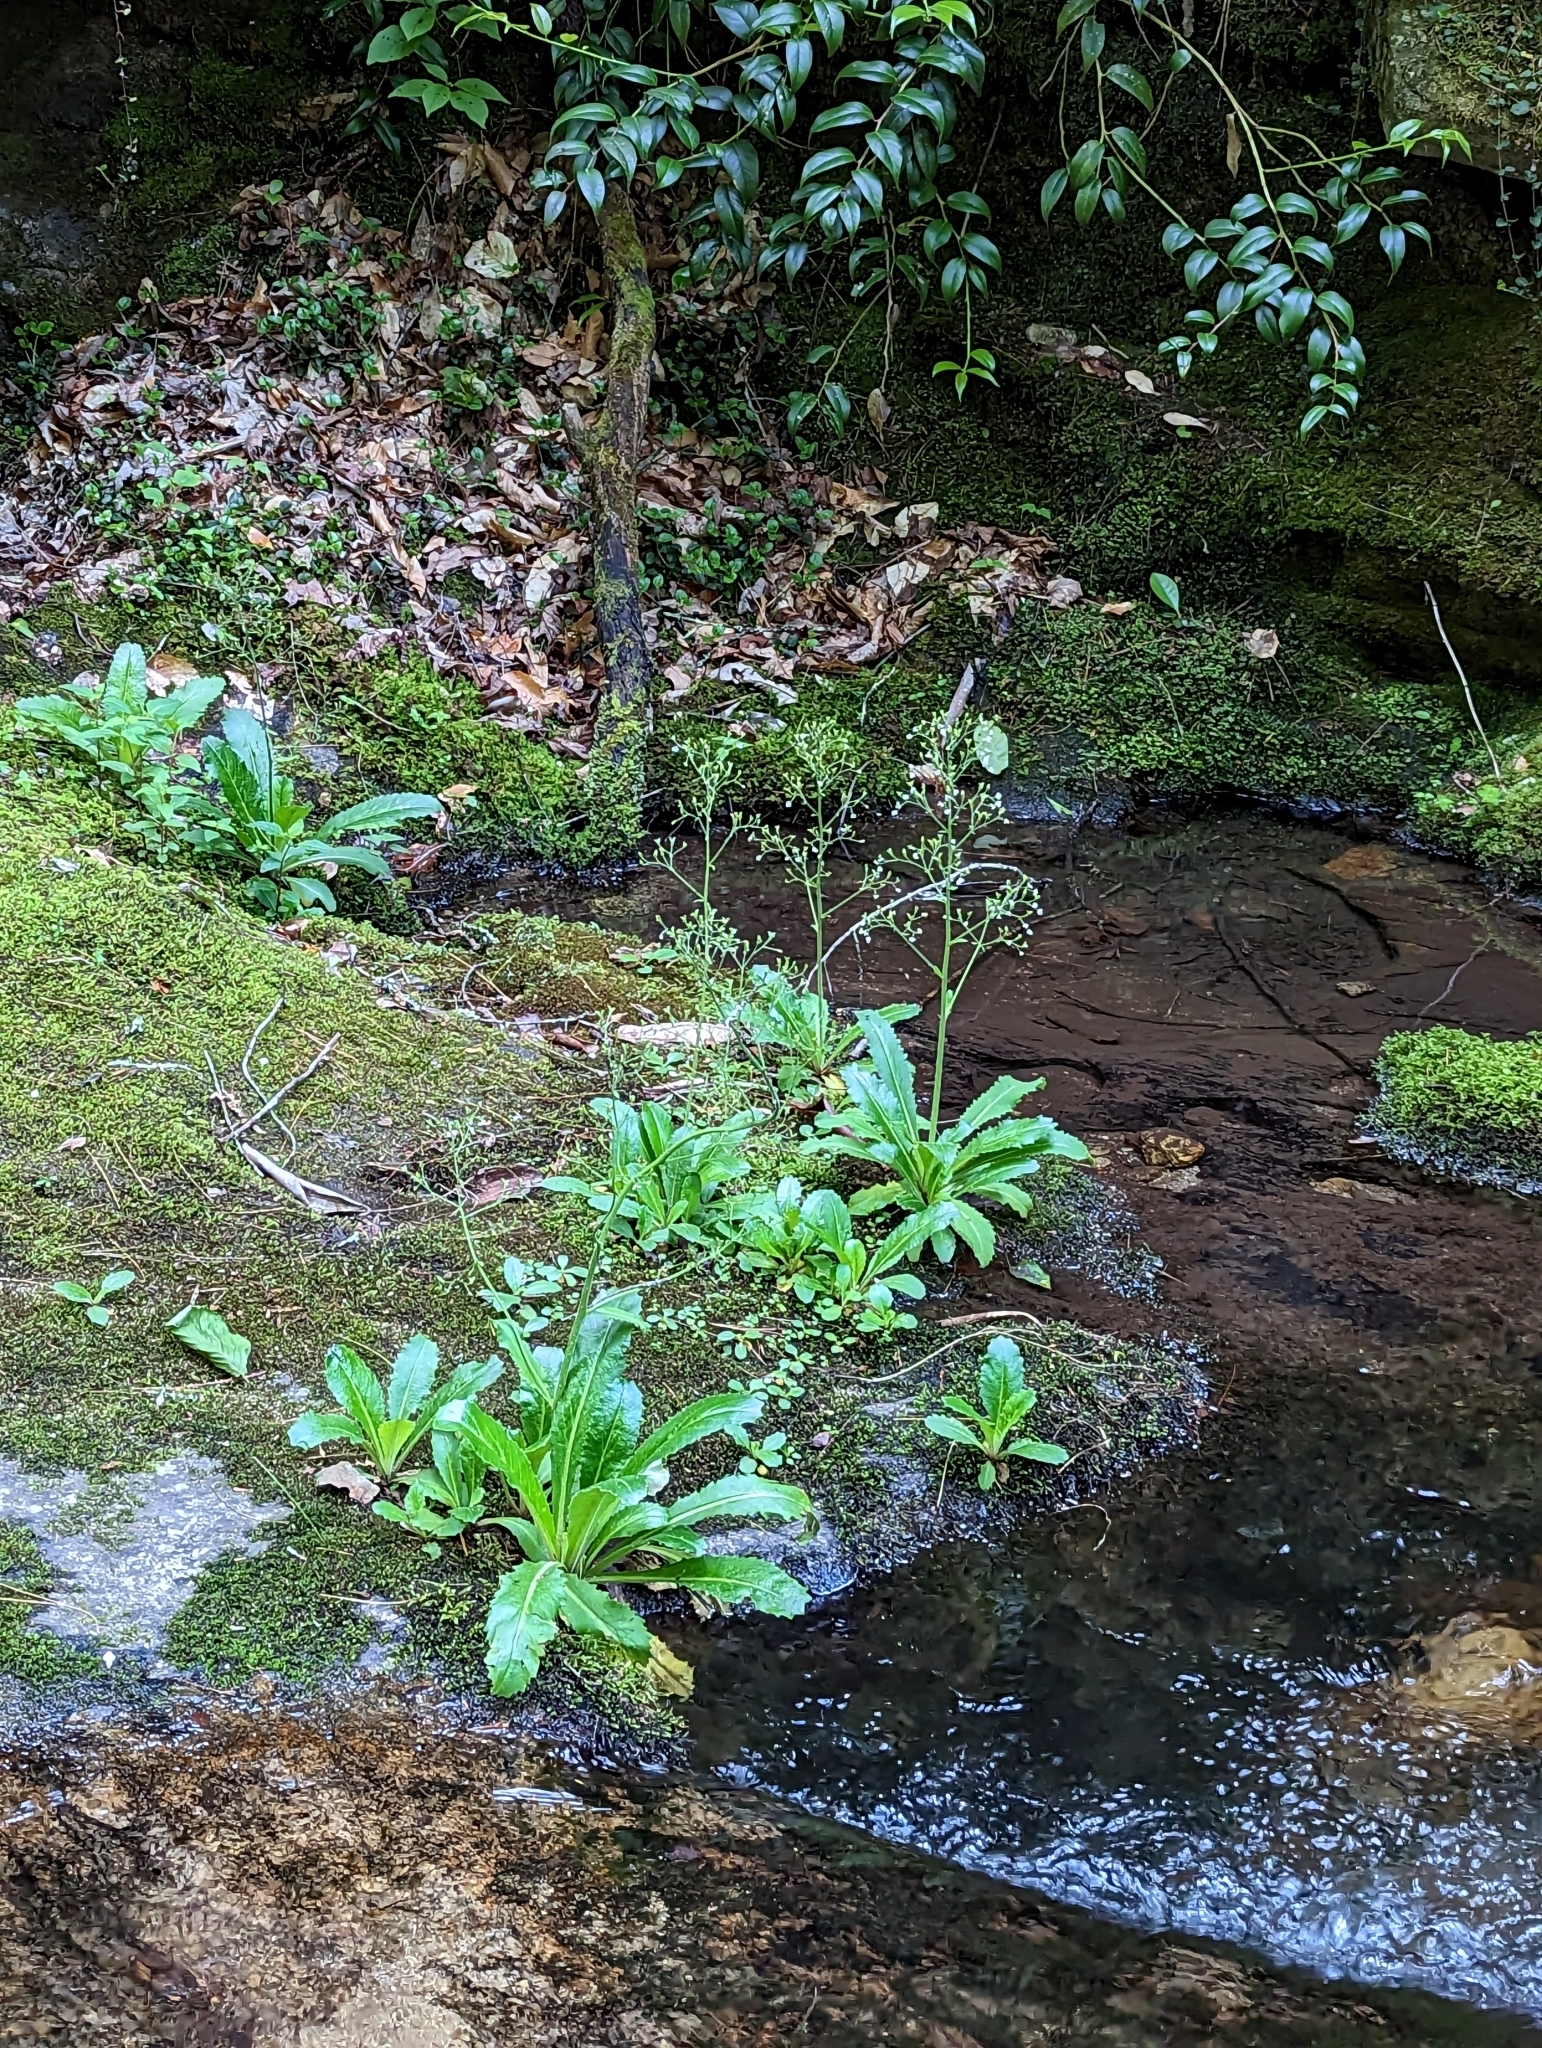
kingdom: Plantae
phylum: Tracheophyta
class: Magnoliopsida
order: Saxifragales
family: Saxifragaceae
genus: Micranthes
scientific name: Micranthes micranthidifolia
